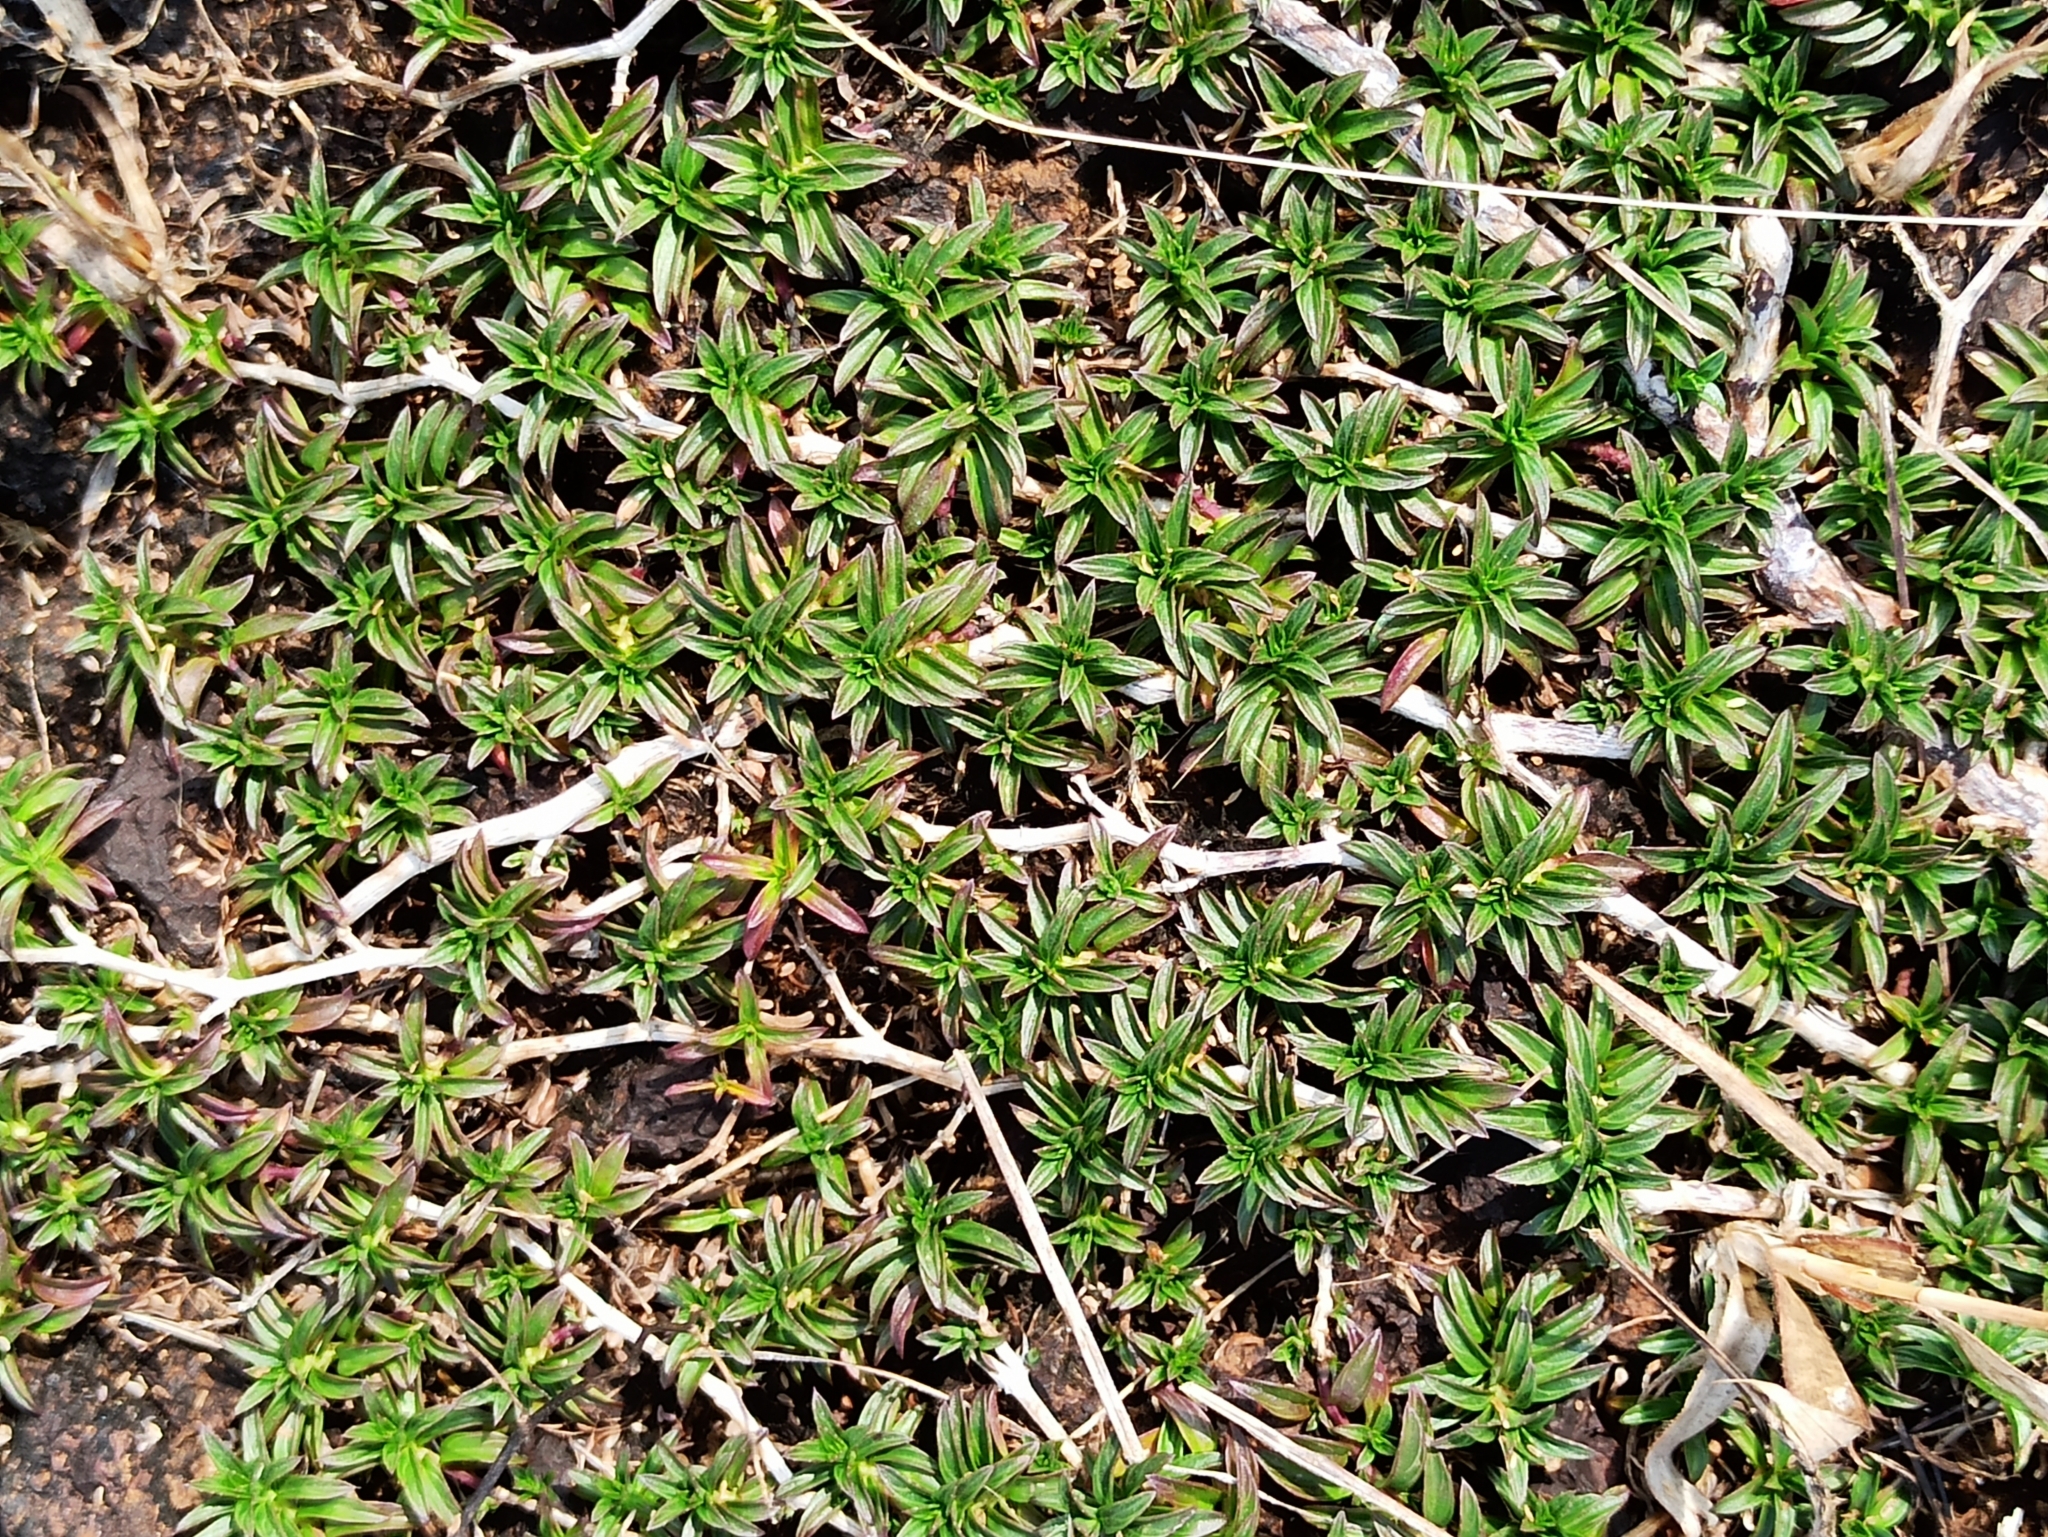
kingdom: Plantae
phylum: Tracheophyta
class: Magnoliopsida
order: Lamiales
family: Acanthaceae
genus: Lepidagathis
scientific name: Lepidagathis keralensis
